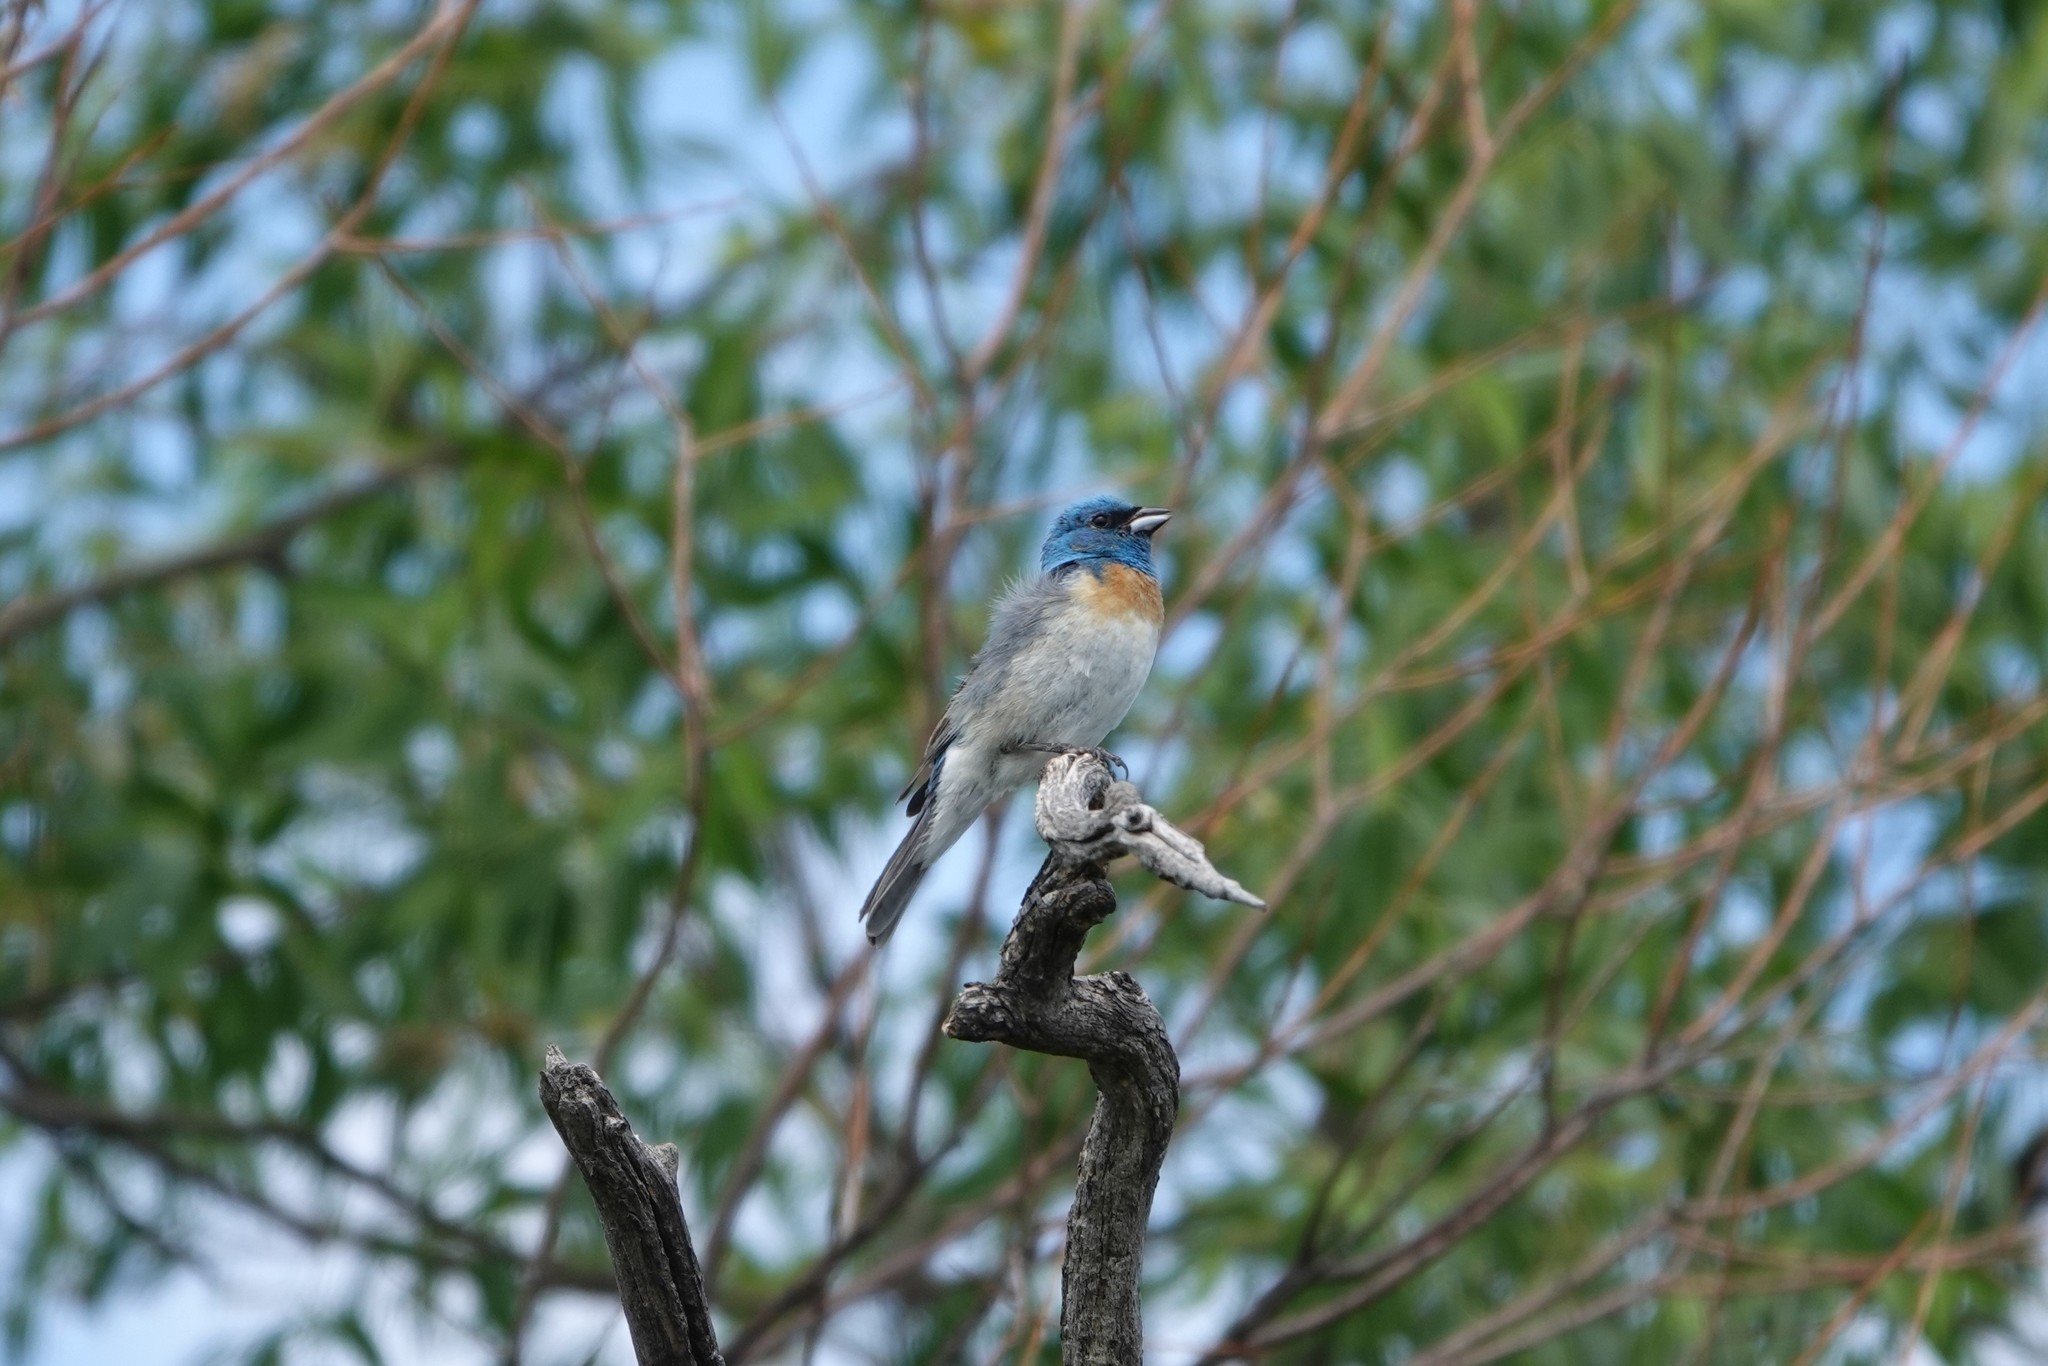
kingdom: Animalia
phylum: Chordata
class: Aves
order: Passeriformes
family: Cardinalidae
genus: Passerina
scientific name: Passerina amoena
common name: Lazuli bunting
